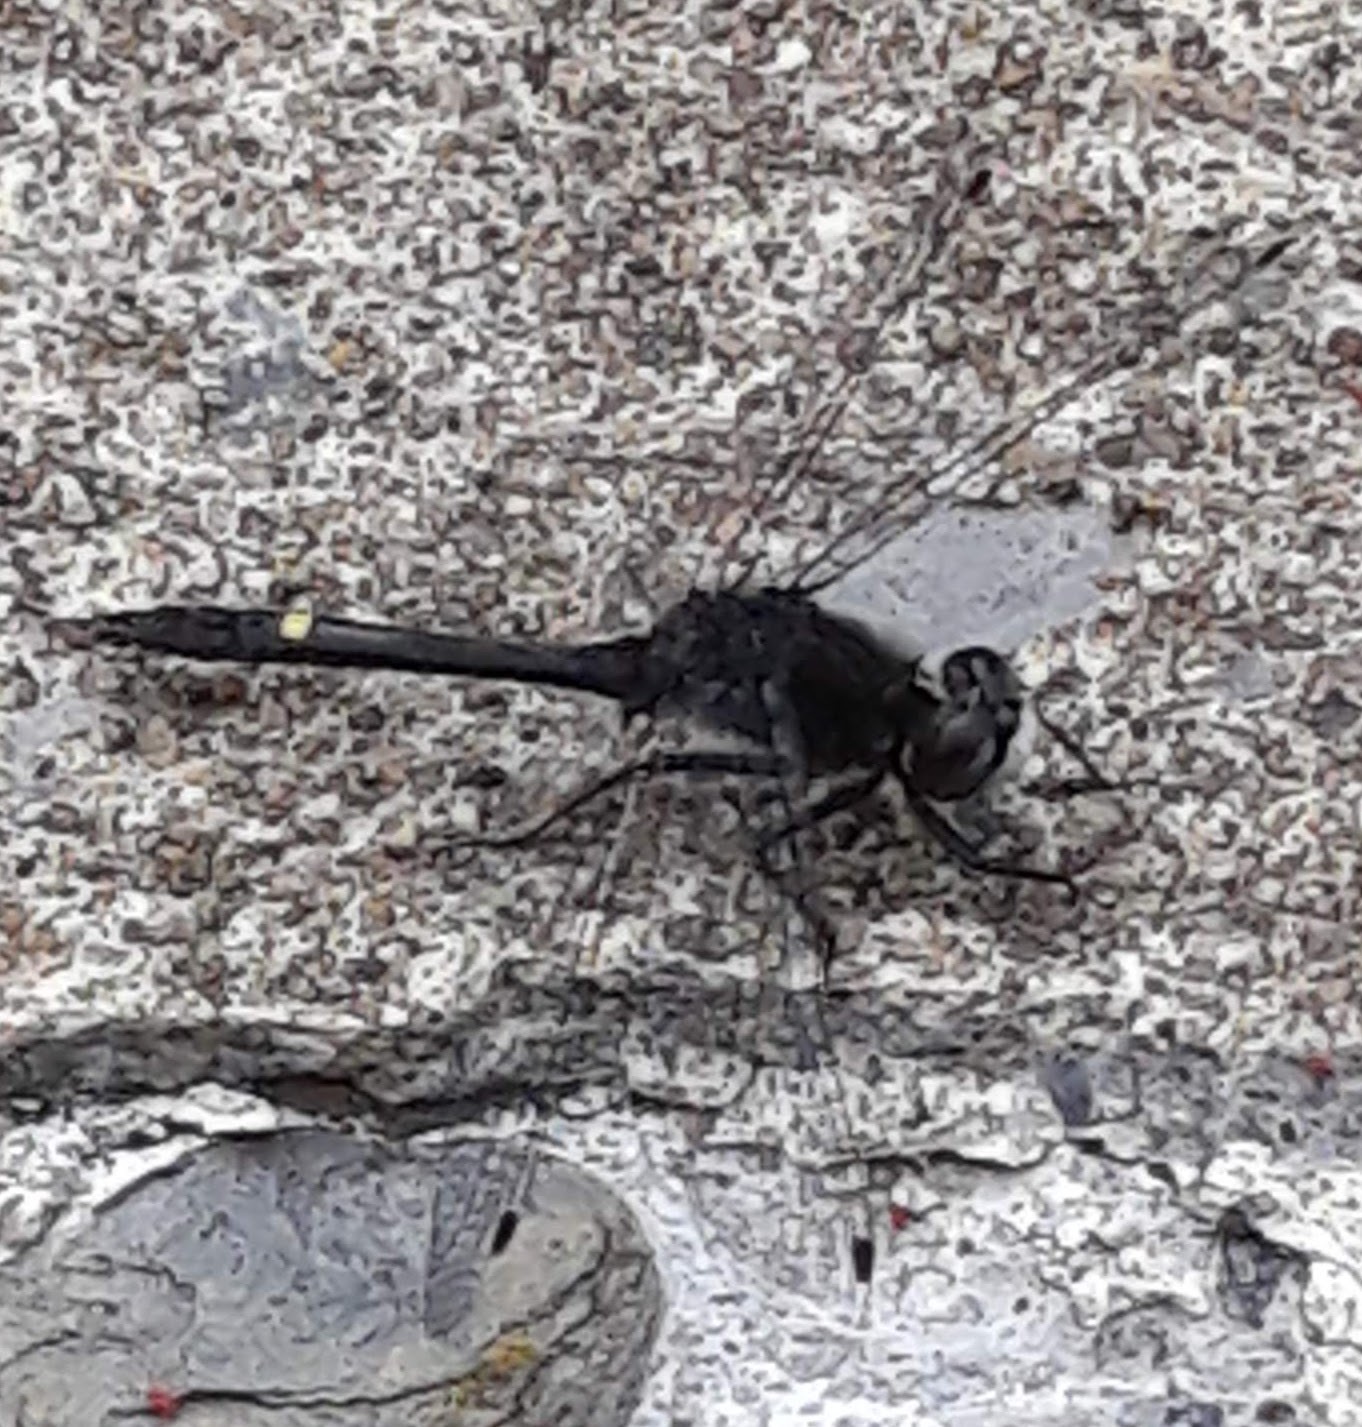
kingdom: Animalia
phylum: Arthropoda
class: Insecta
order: Odonata
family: Libellulidae
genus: Leucorrhinia
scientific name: Leucorrhinia intacta
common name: Dot-tailed whiteface
